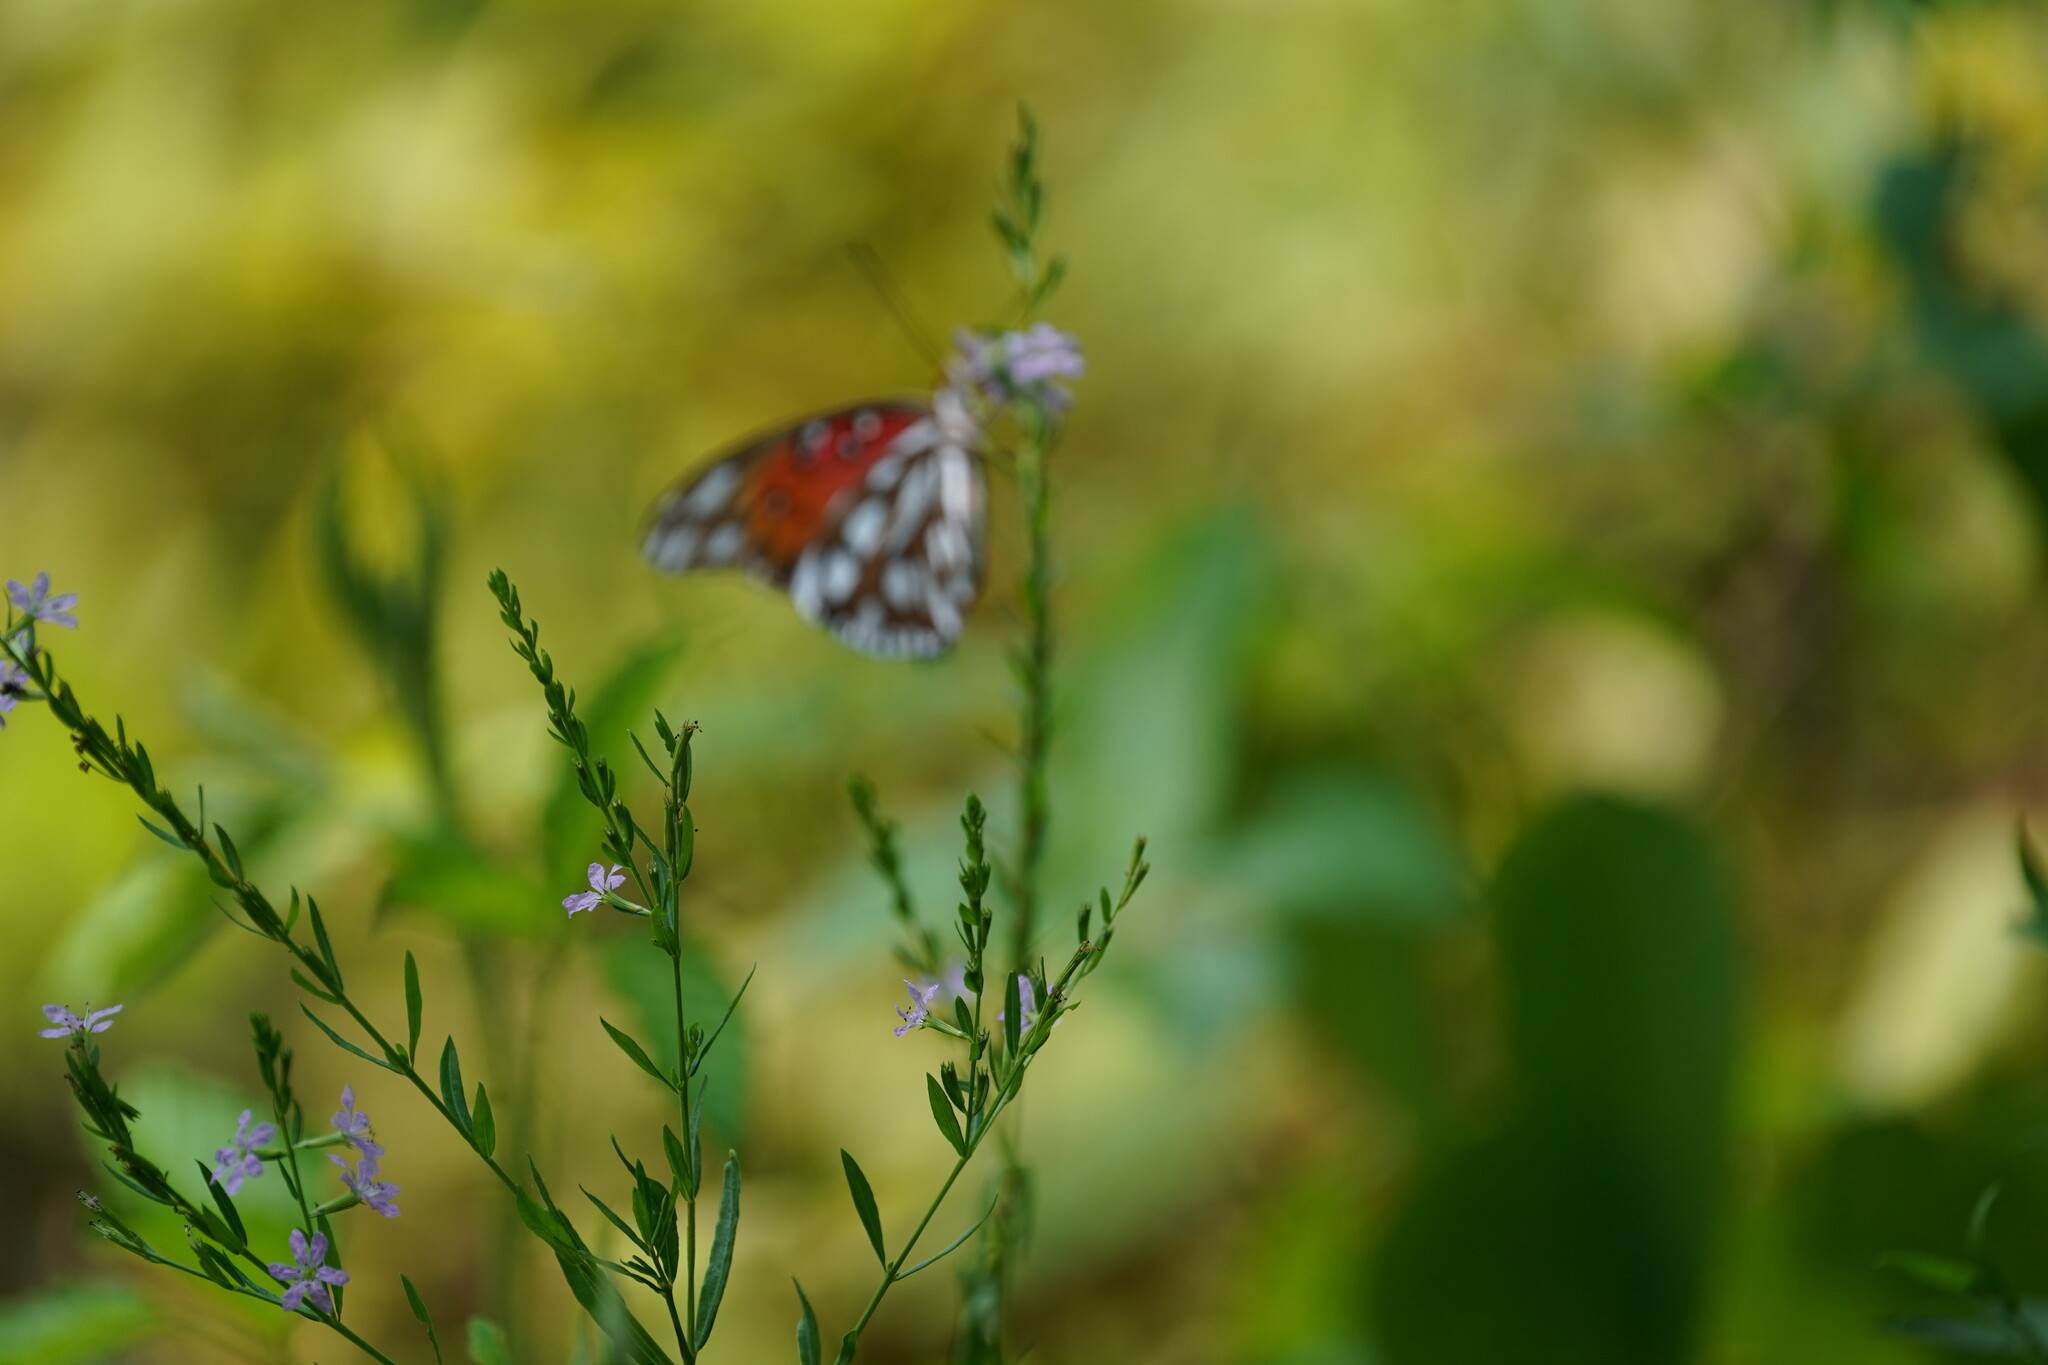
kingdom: Animalia
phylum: Arthropoda
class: Insecta
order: Lepidoptera
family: Nymphalidae
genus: Dione
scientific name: Dione vanillae
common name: Gulf fritillary
